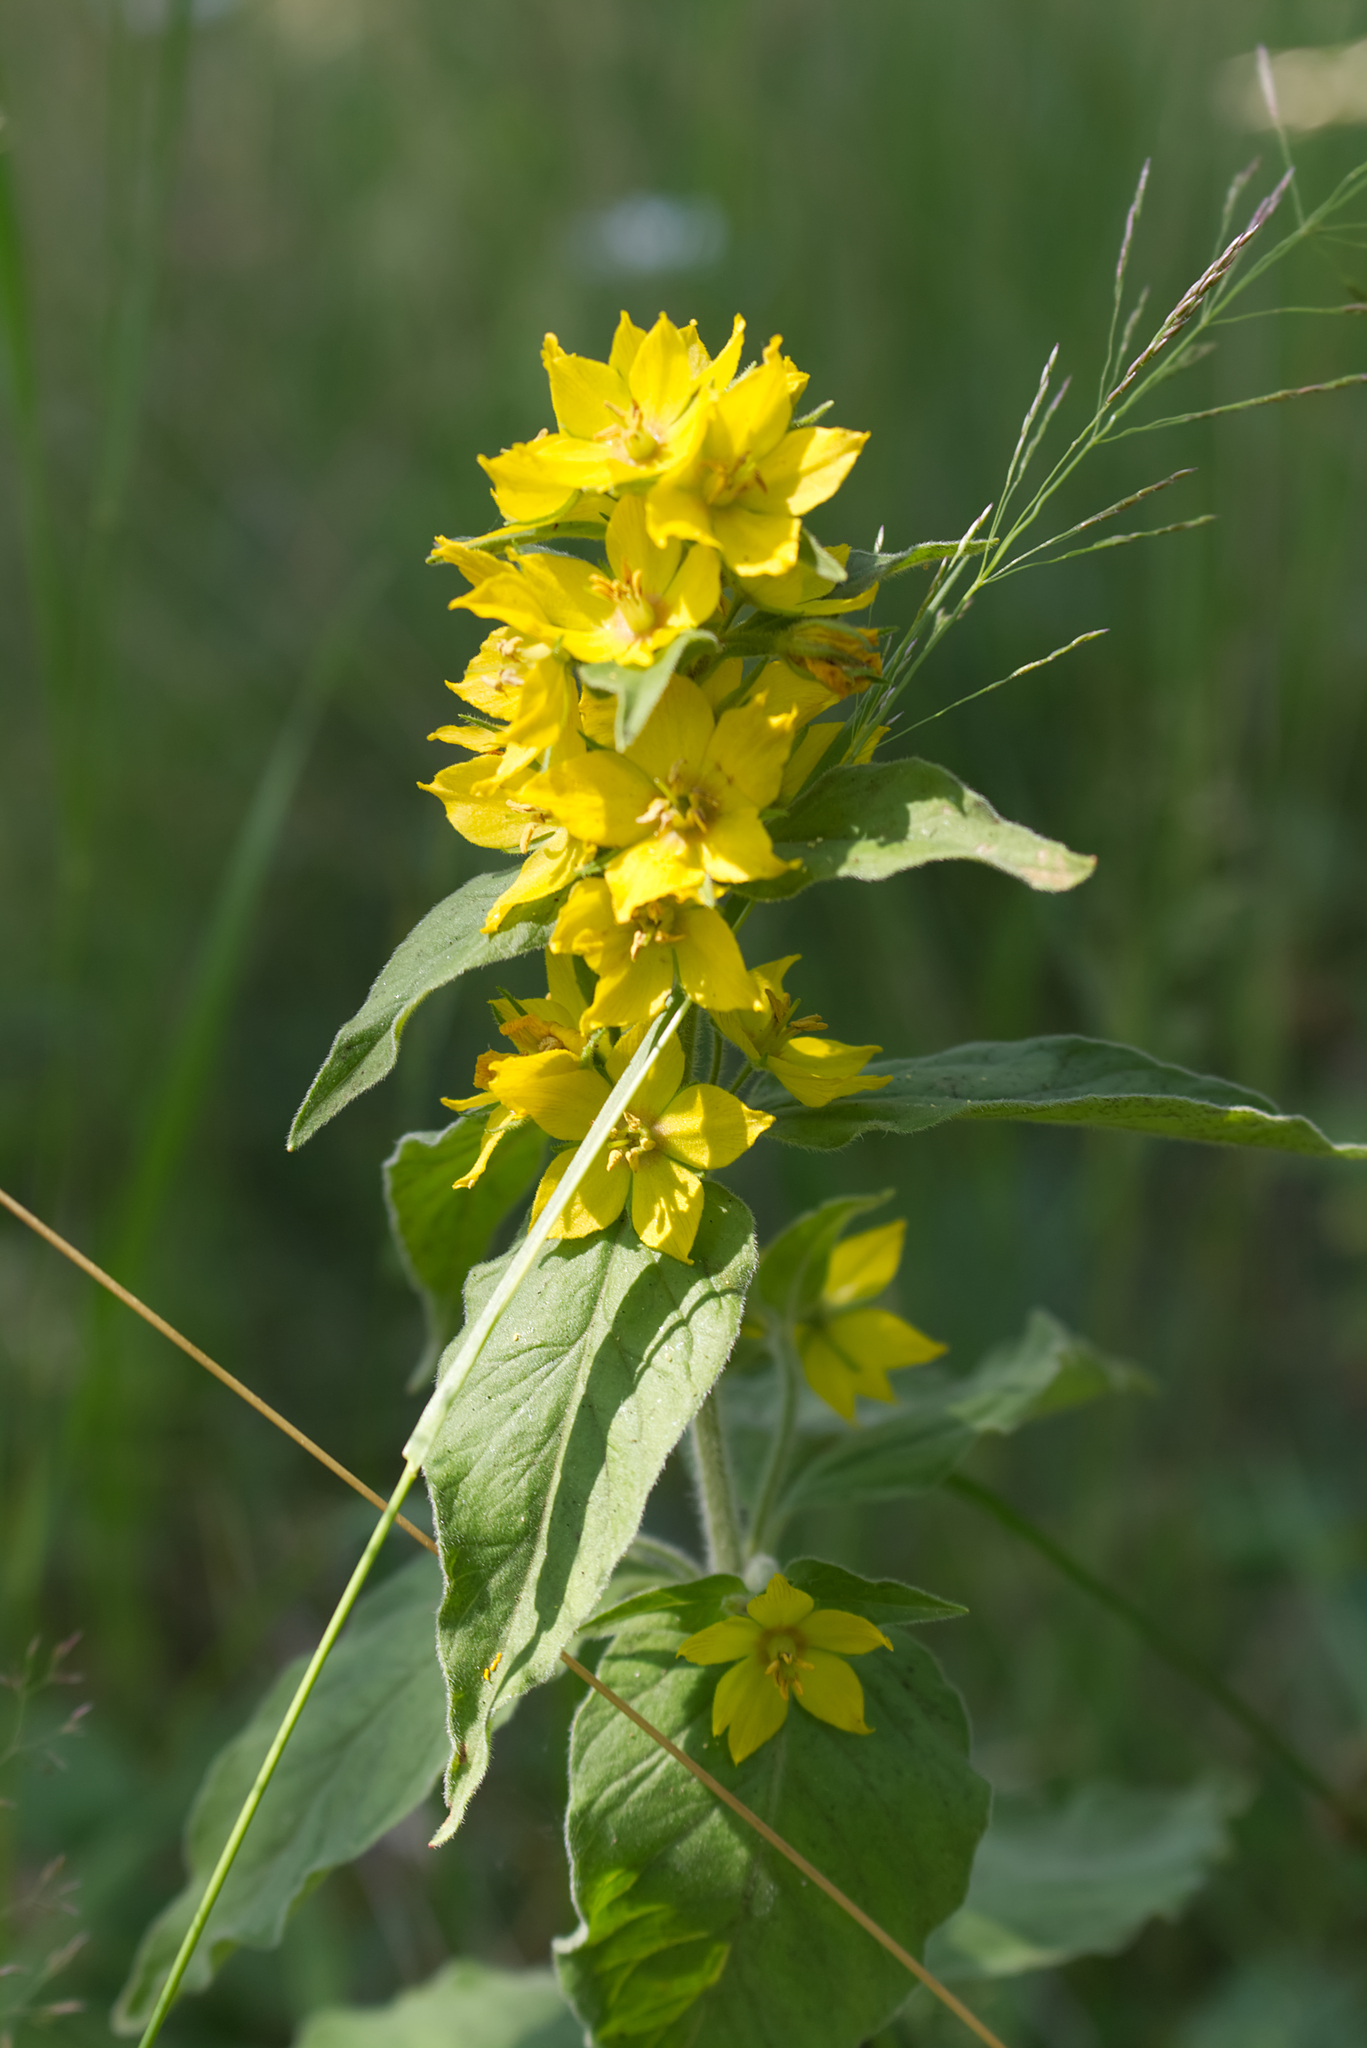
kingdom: Plantae
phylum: Tracheophyta
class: Magnoliopsida
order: Ericales
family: Primulaceae
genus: Lysimachia
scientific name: Lysimachia punctata
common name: Dotted loosestrife
